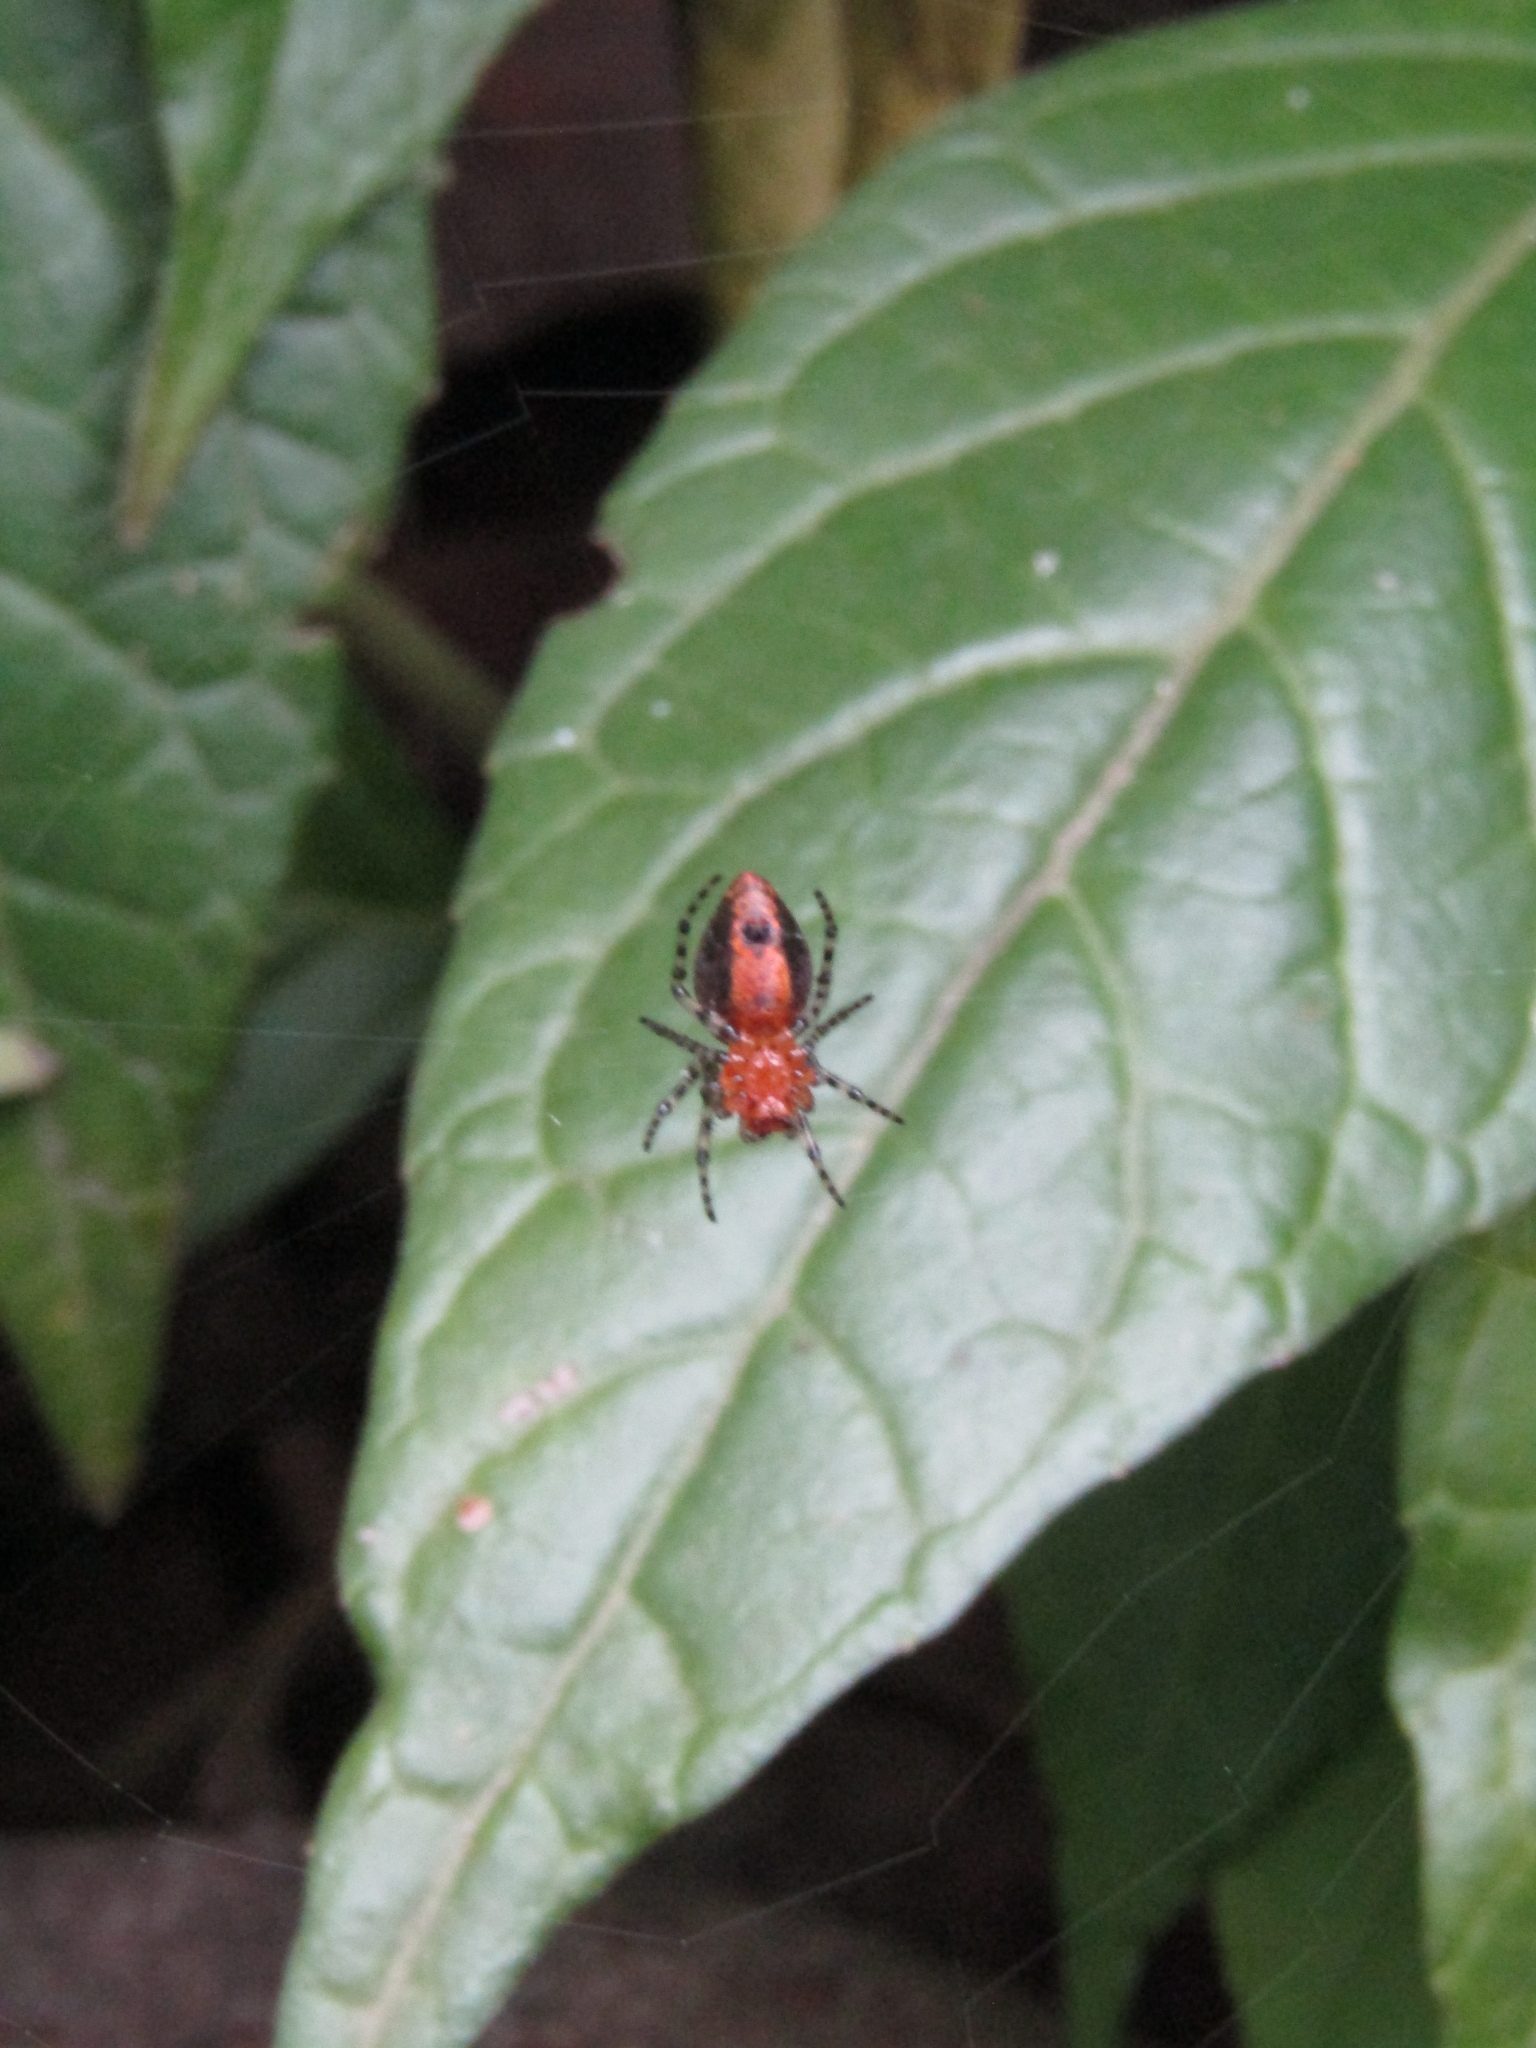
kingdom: Animalia
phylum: Arthropoda
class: Arachnida
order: Araneae
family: Araneidae
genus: Alpaida
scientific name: Alpaida gallardoi
